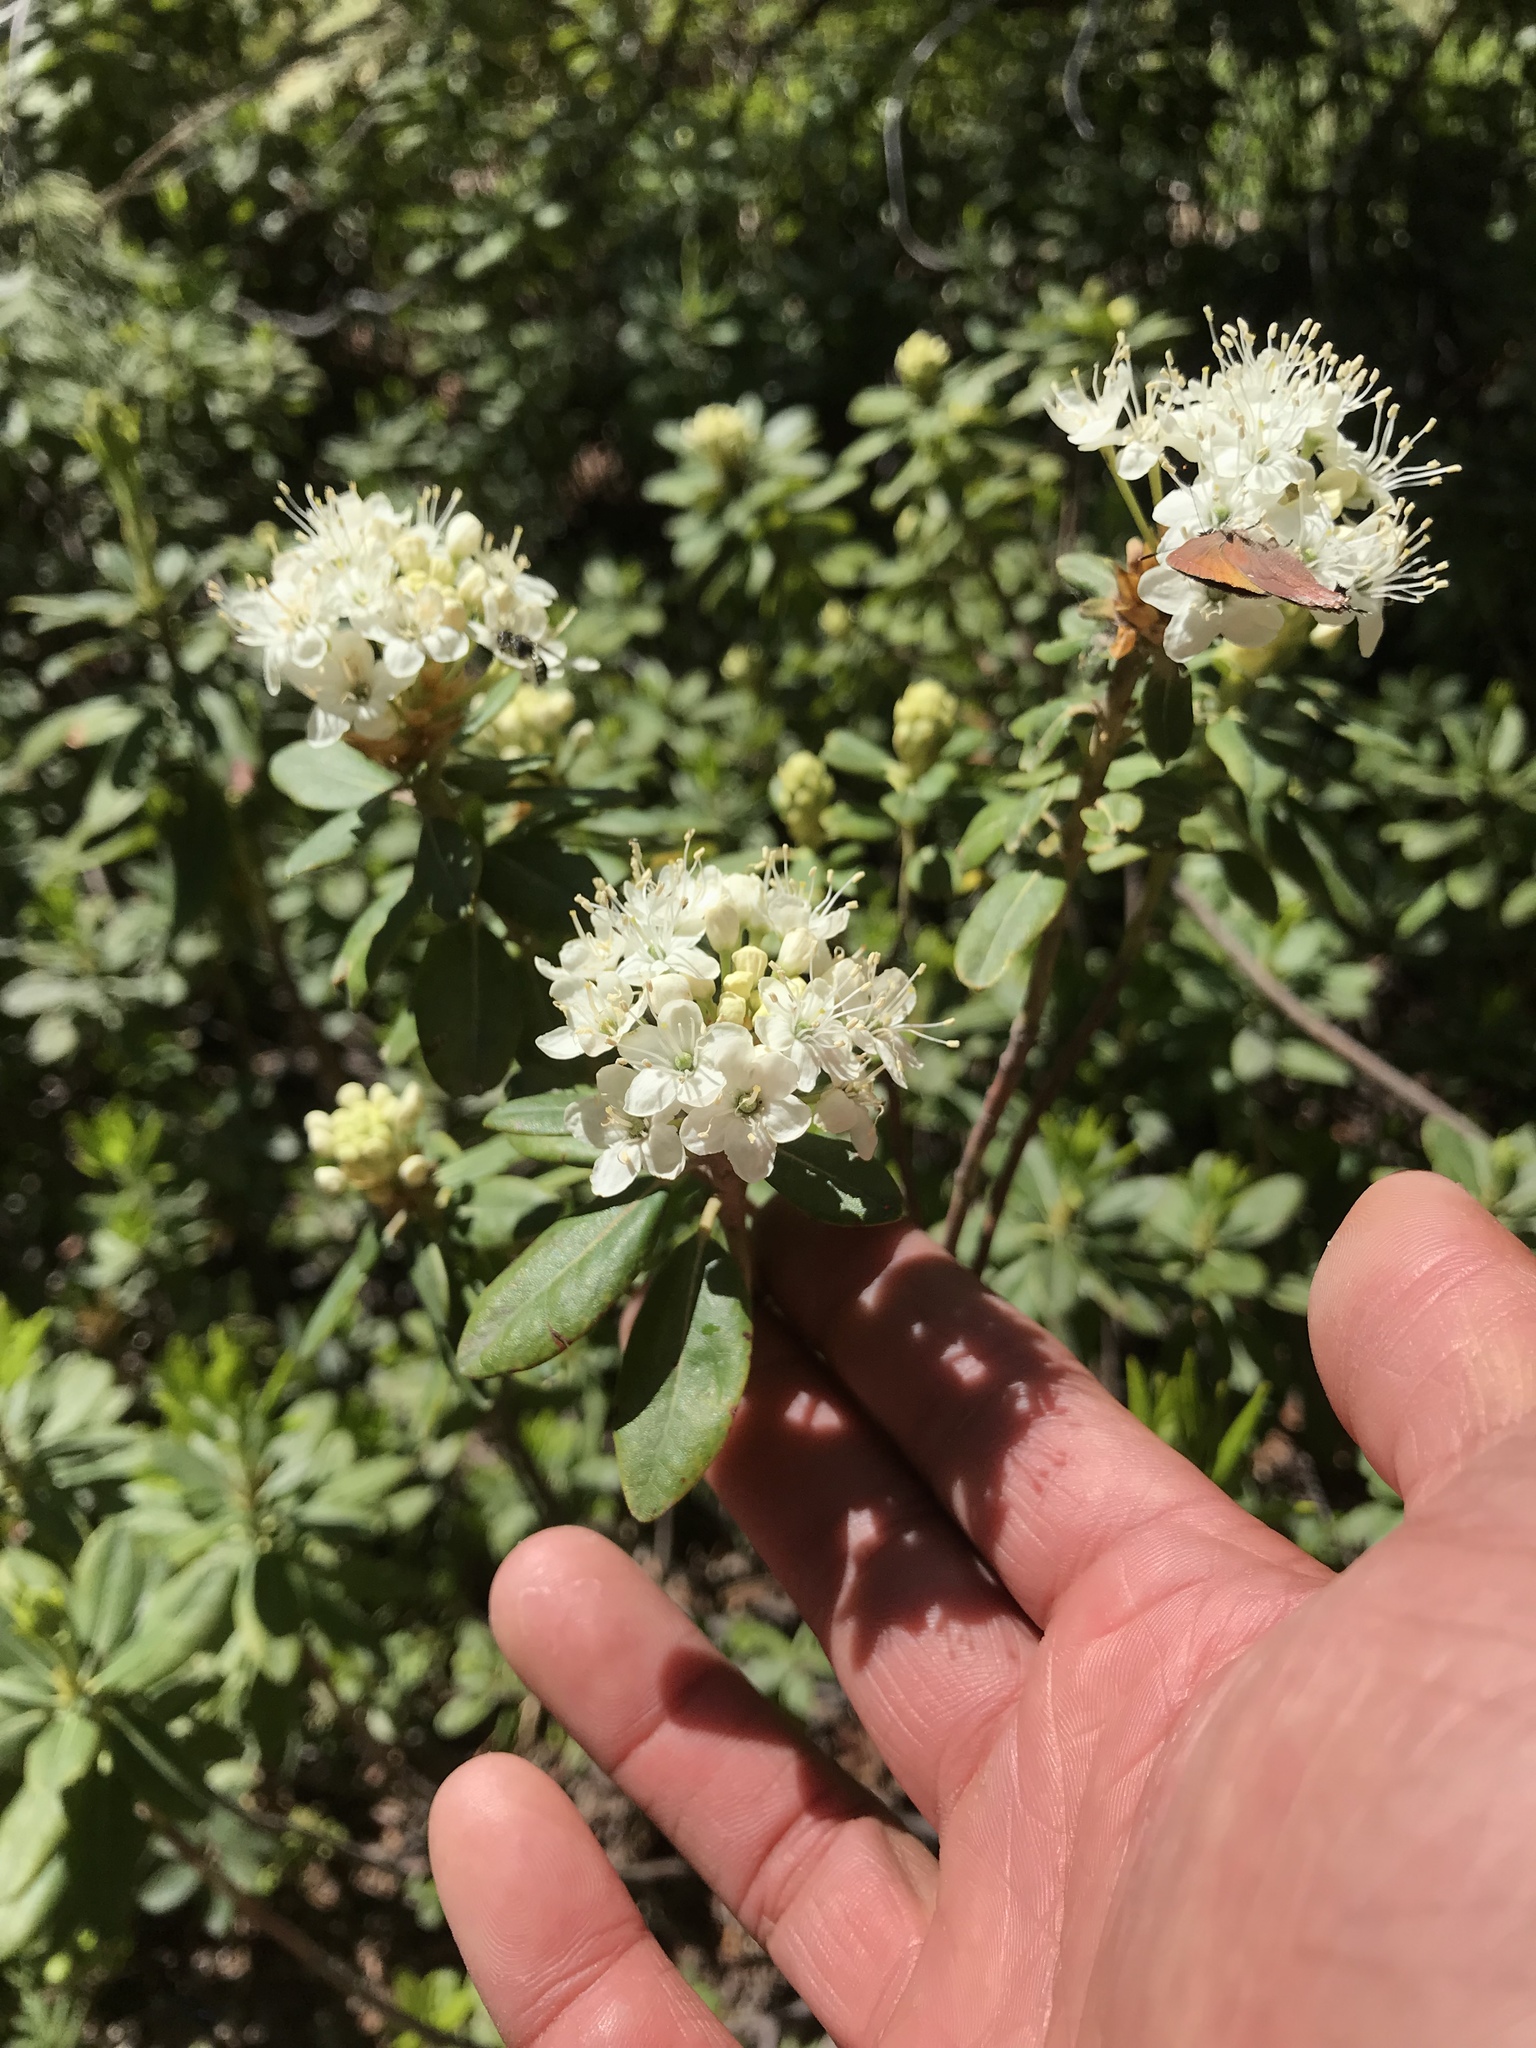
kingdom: Plantae
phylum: Tracheophyta
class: Magnoliopsida
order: Ericales
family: Ericaceae
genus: Rhododendron
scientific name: Rhododendron columbianum
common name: Western labrador tea
